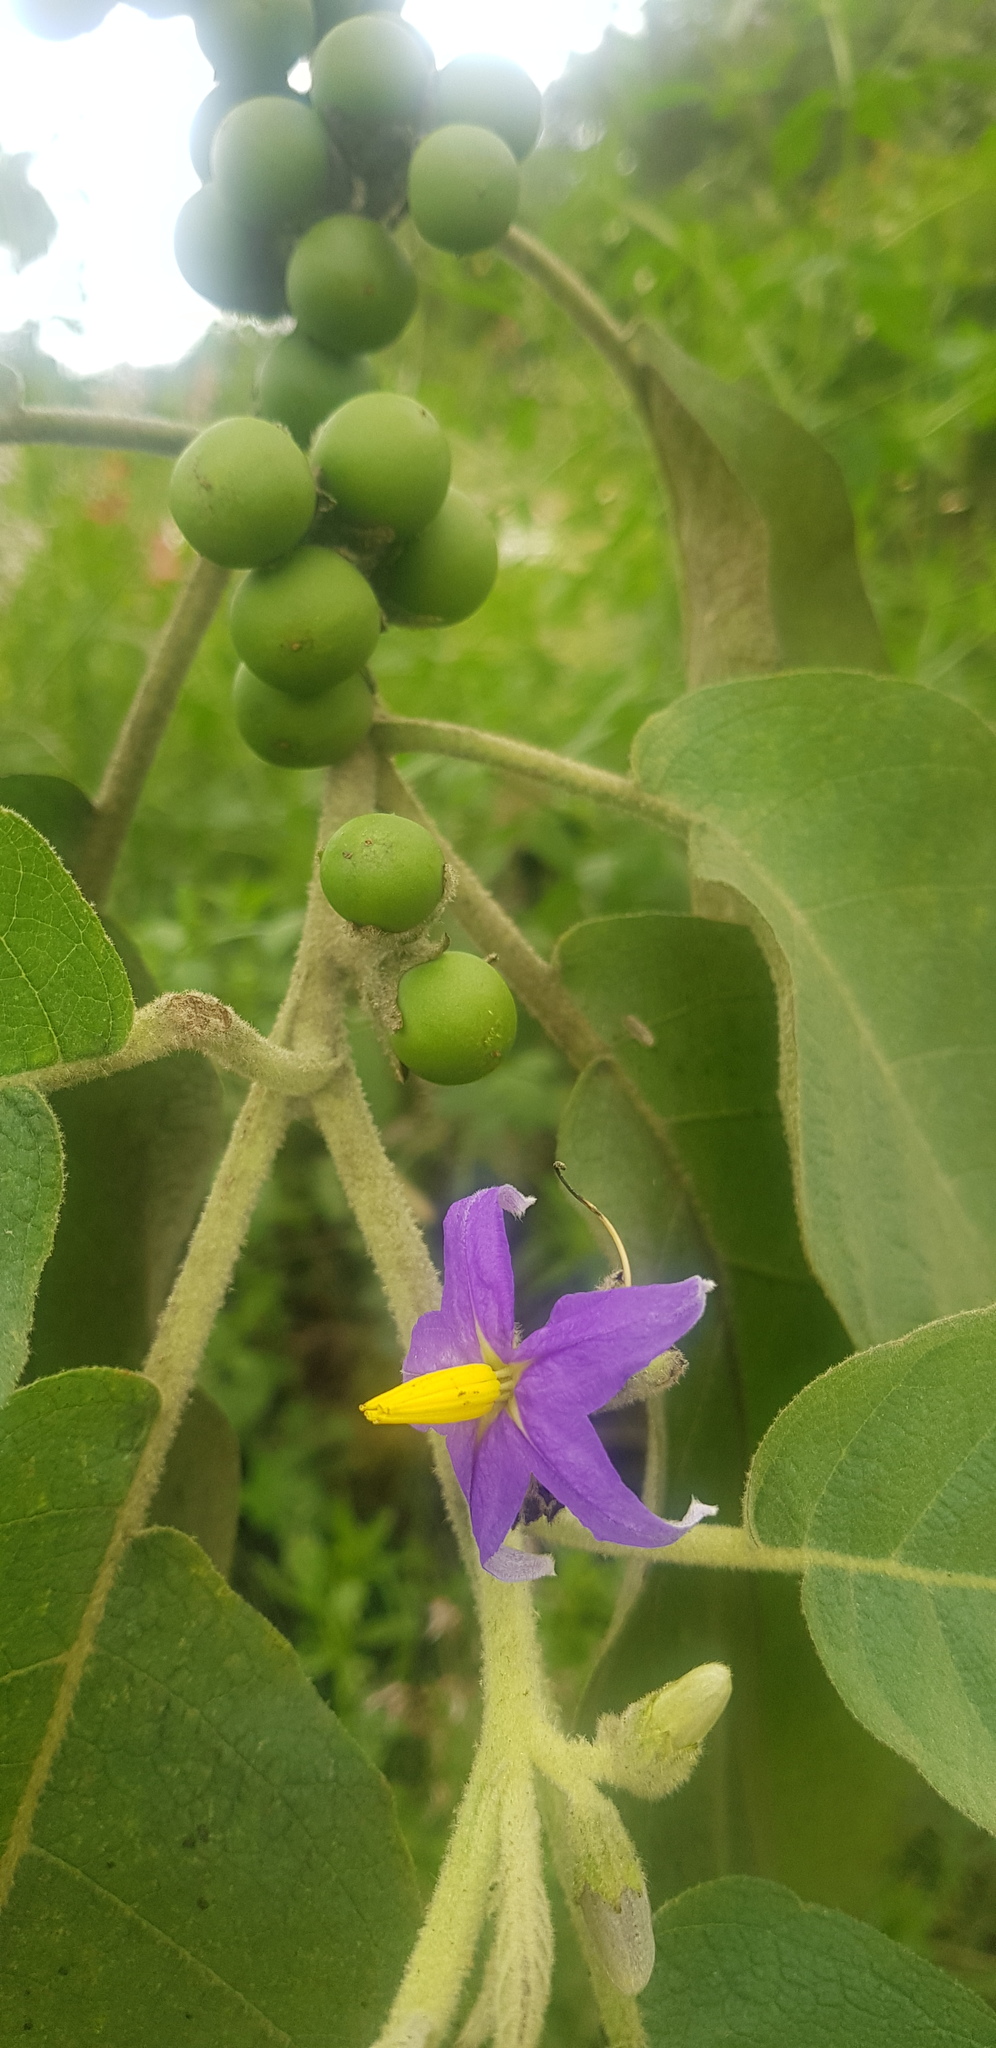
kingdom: Plantae
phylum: Tracheophyta
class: Magnoliopsida
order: Solanales
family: Solanaceae
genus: Solanum
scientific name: Solanum mitlense
